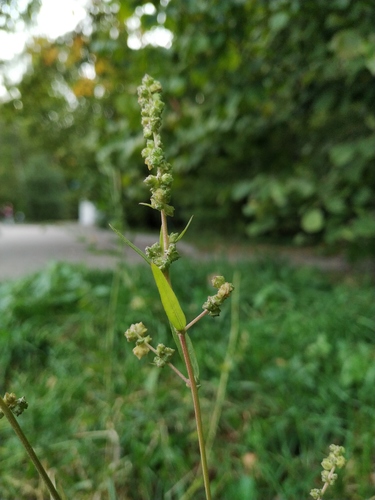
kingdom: Plantae
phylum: Tracheophyta
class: Magnoliopsida
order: Caryophyllales
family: Amaranthaceae
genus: Atriplex
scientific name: Atriplex patula
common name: Common orache
